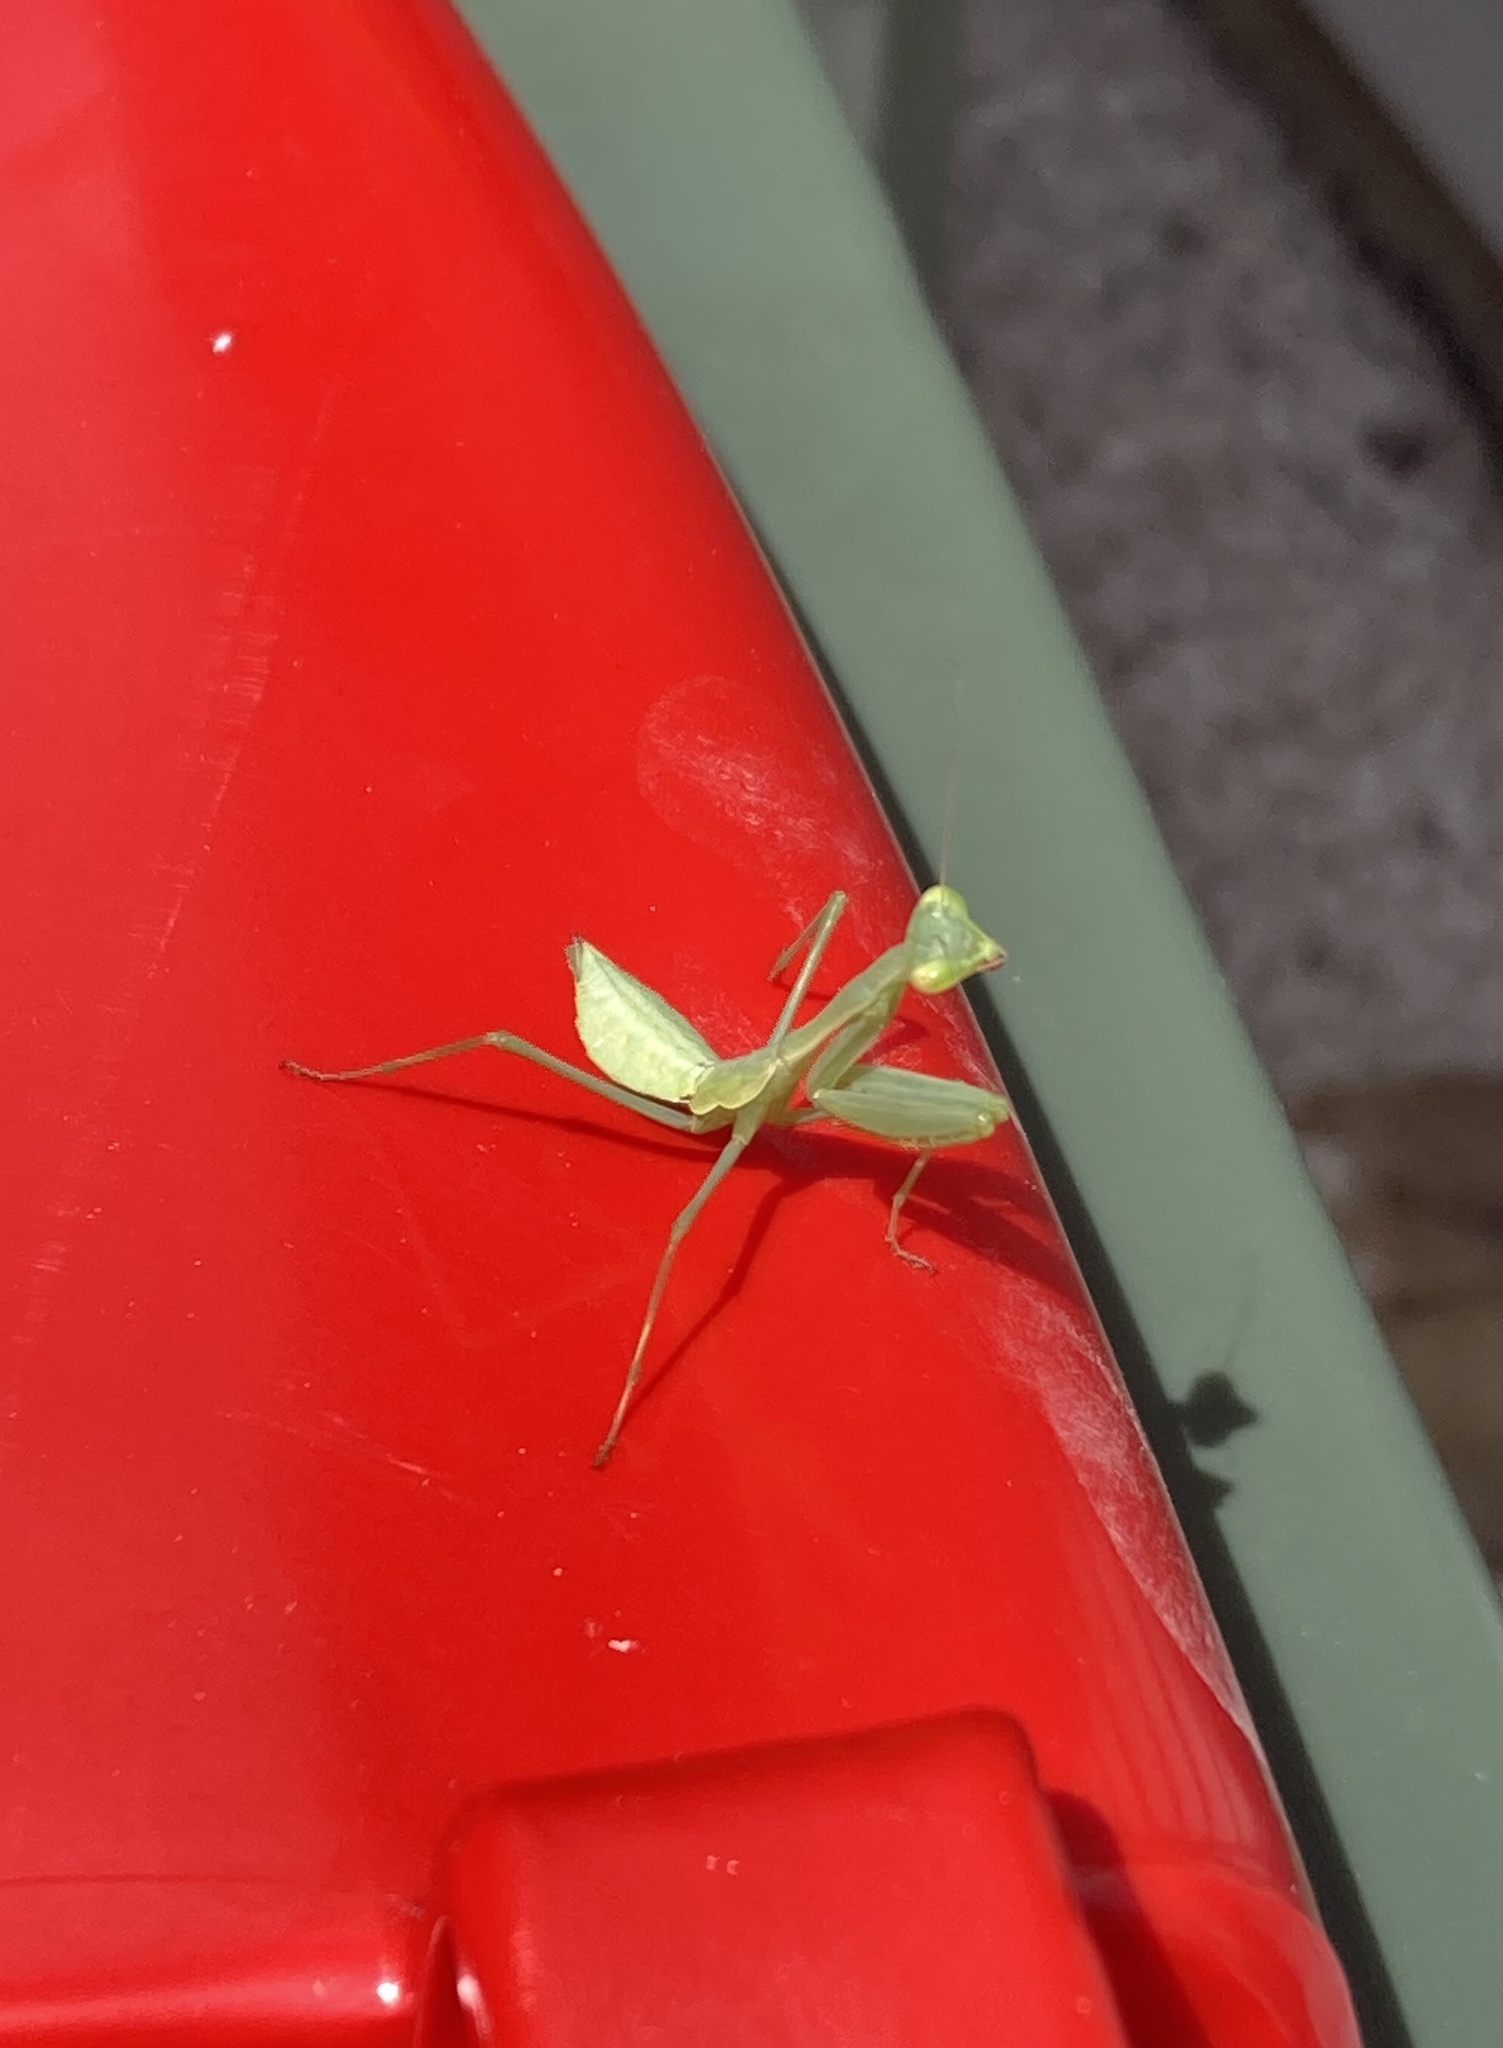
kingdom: Animalia
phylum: Arthropoda
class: Insecta
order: Mantodea
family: Miomantidae
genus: Miomantis
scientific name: Miomantis caffra
